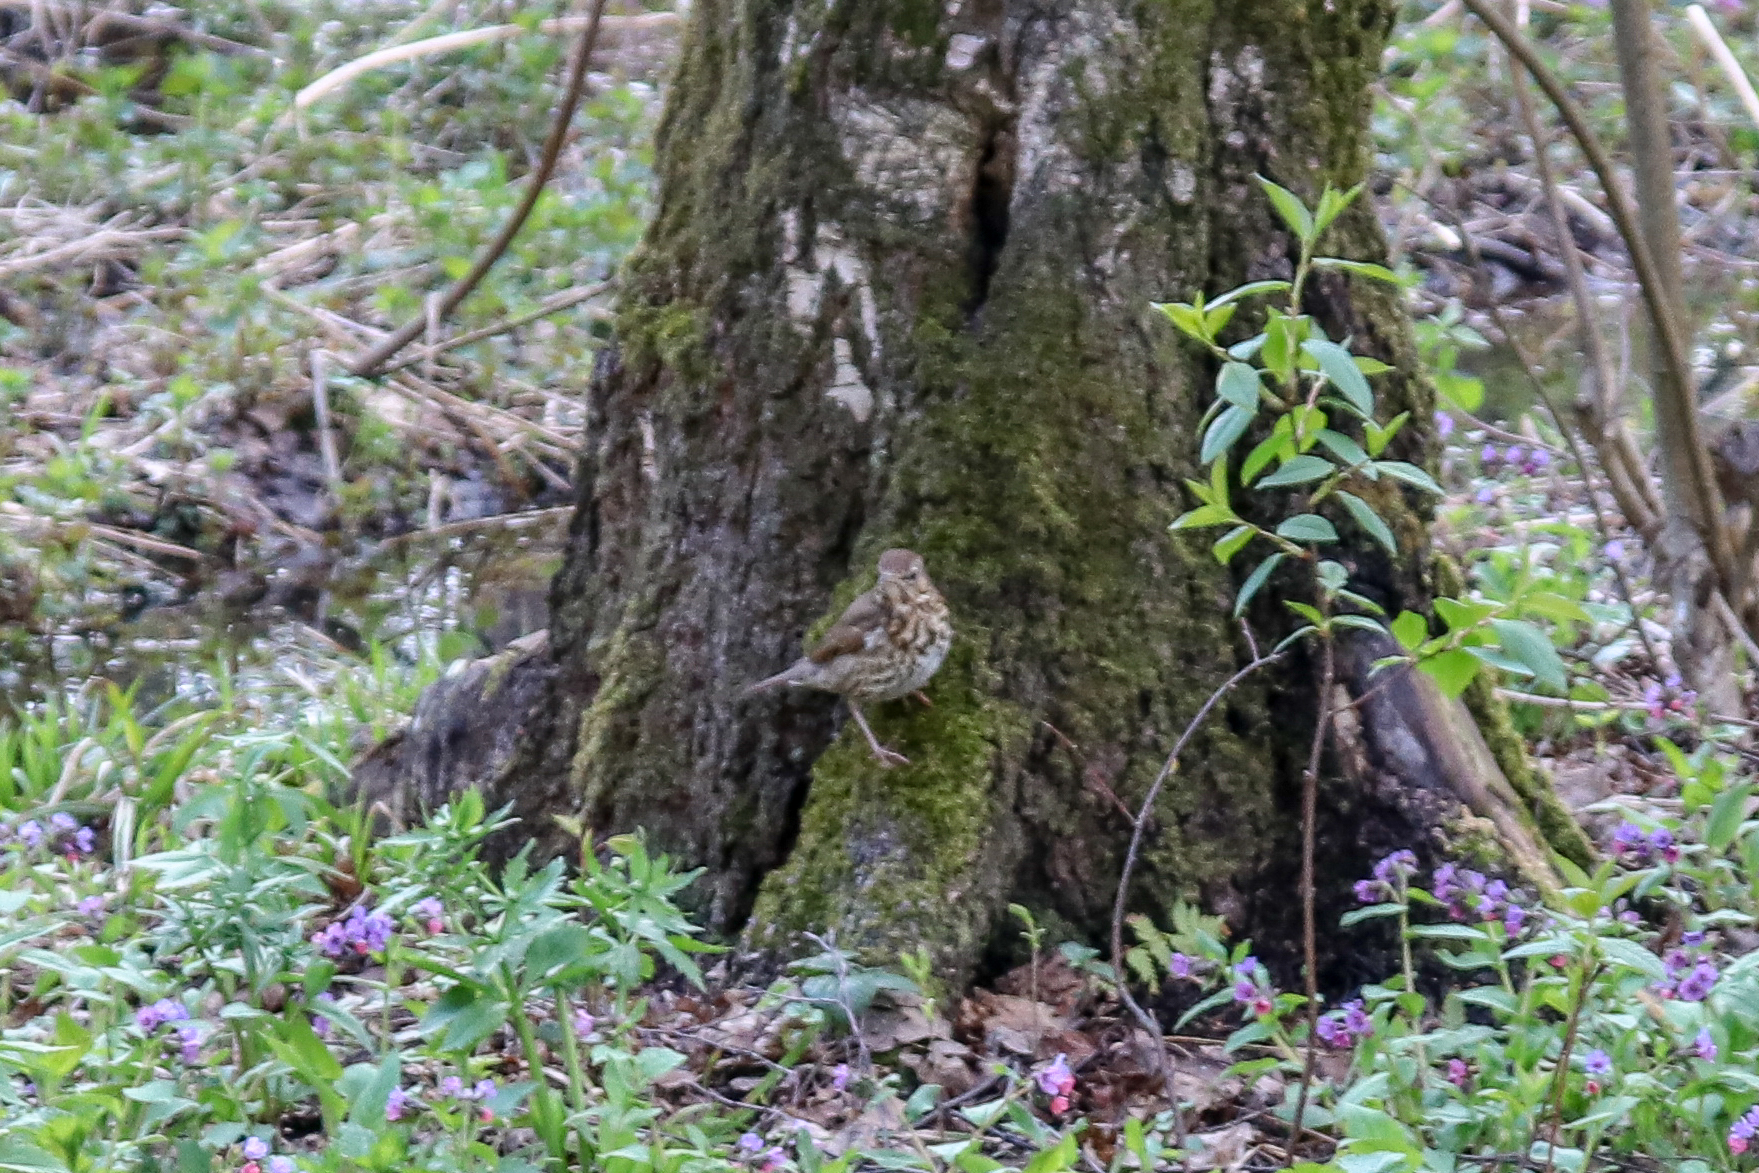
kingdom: Animalia
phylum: Chordata
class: Aves
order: Passeriformes
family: Turdidae
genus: Turdus
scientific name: Turdus philomelos
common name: Song thrush
